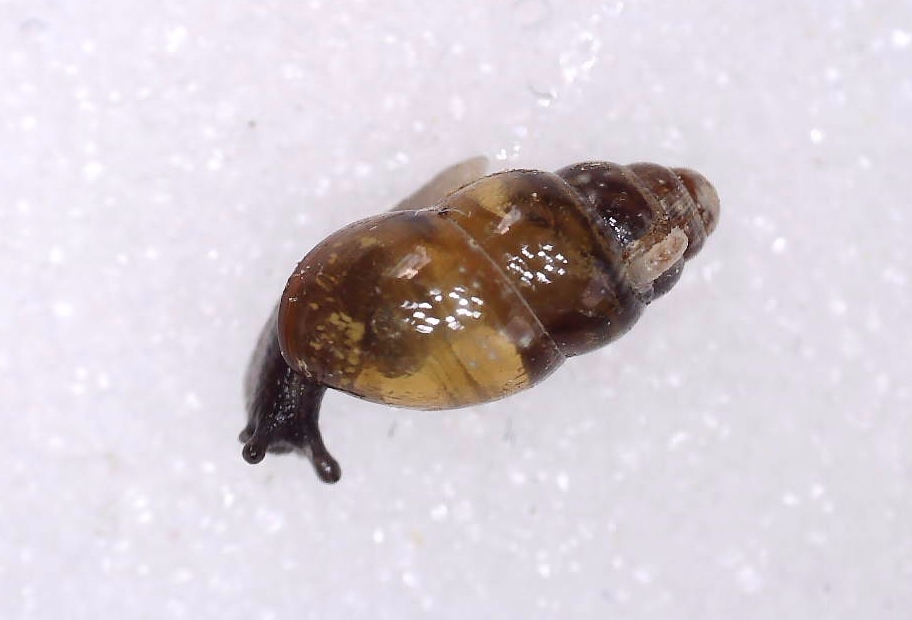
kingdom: Animalia
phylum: Mollusca
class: Gastropoda
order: Stylommatophora
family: Cochlicopidae
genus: Cochlicopa
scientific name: Cochlicopa lubrica
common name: Glossy pillar snail
